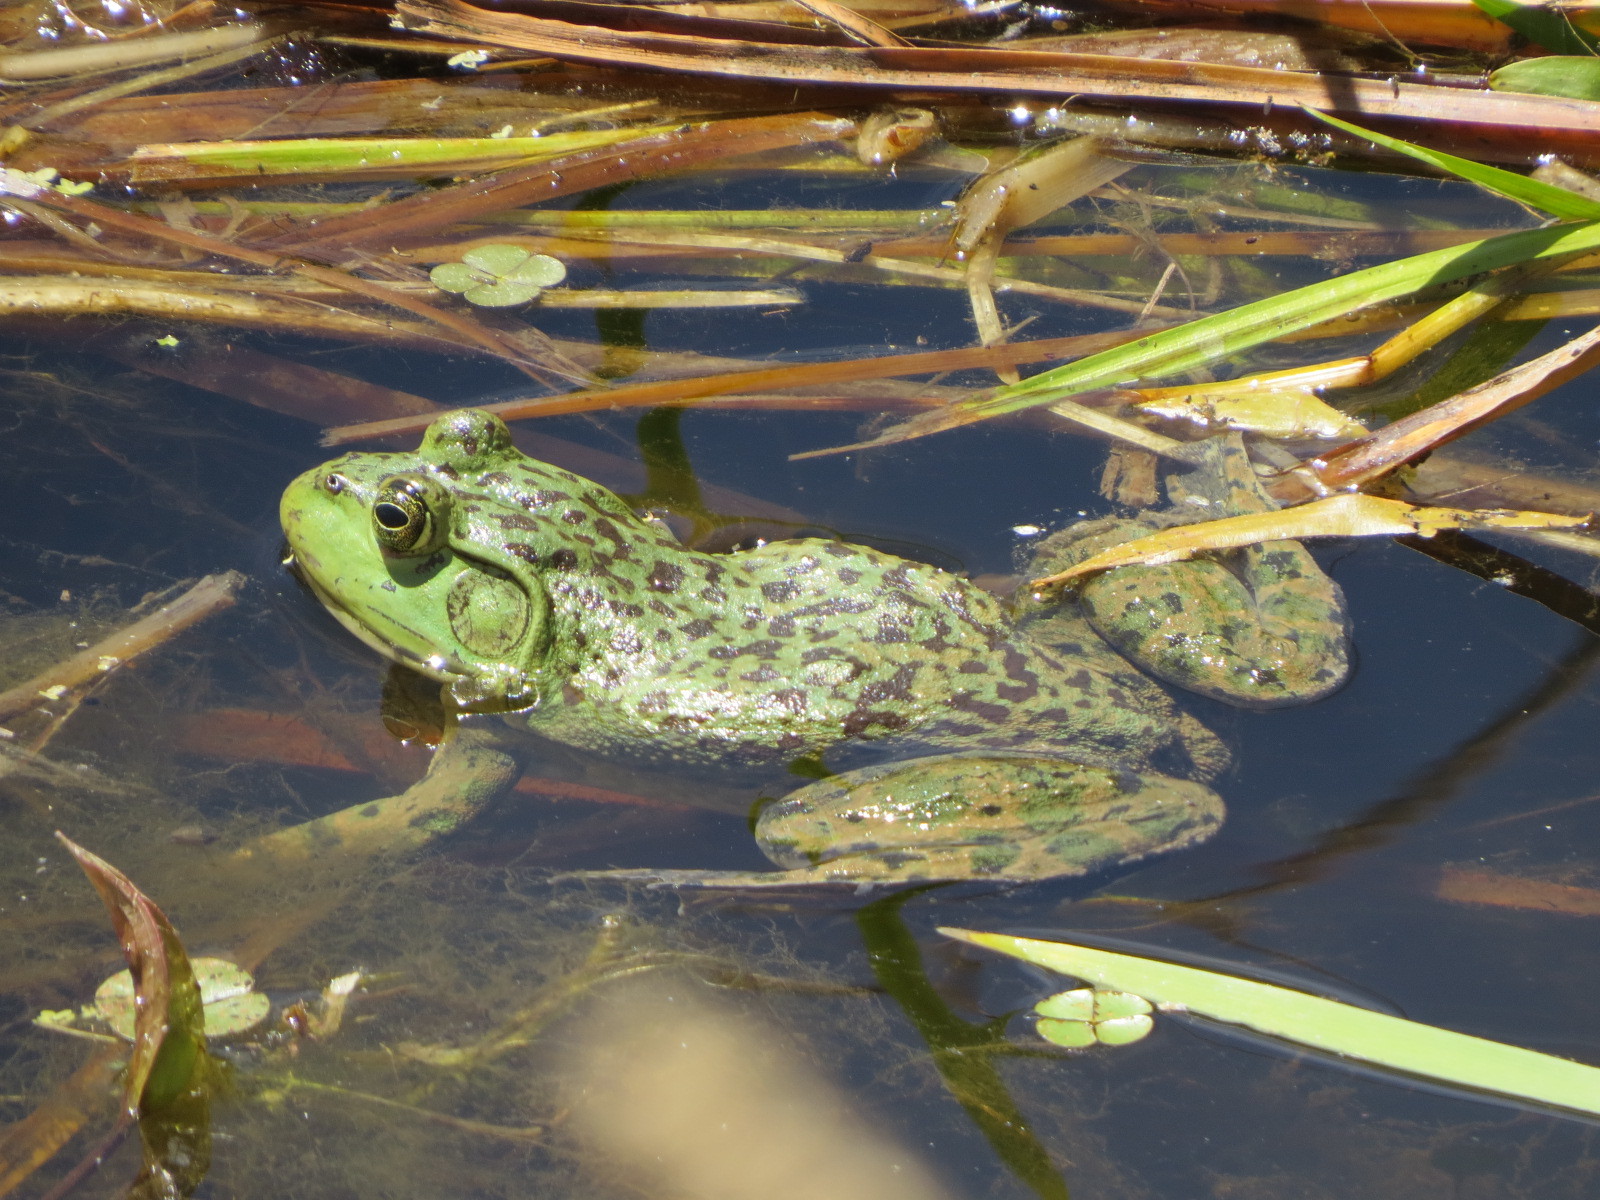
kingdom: Animalia
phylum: Chordata
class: Amphibia
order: Anura
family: Ranidae
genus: Lithobates
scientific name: Lithobates catesbeianus
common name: American bullfrog
